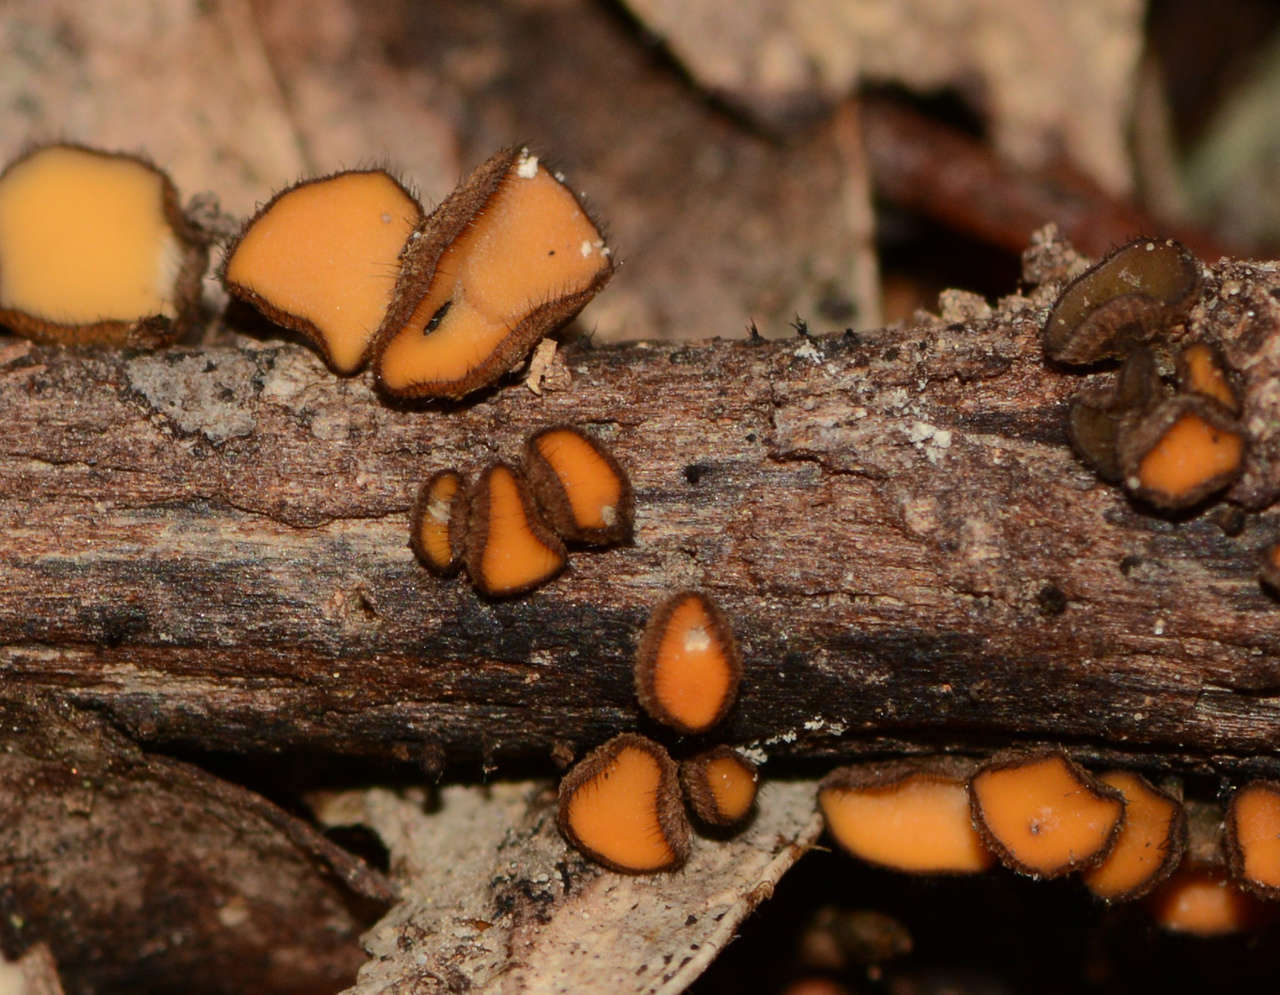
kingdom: Fungi
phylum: Ascomycota
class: Leotiomycetes
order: Helotiales
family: Helotiaceae
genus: Hymenotorrendiella
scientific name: Hymenotorrendiella clelandii
